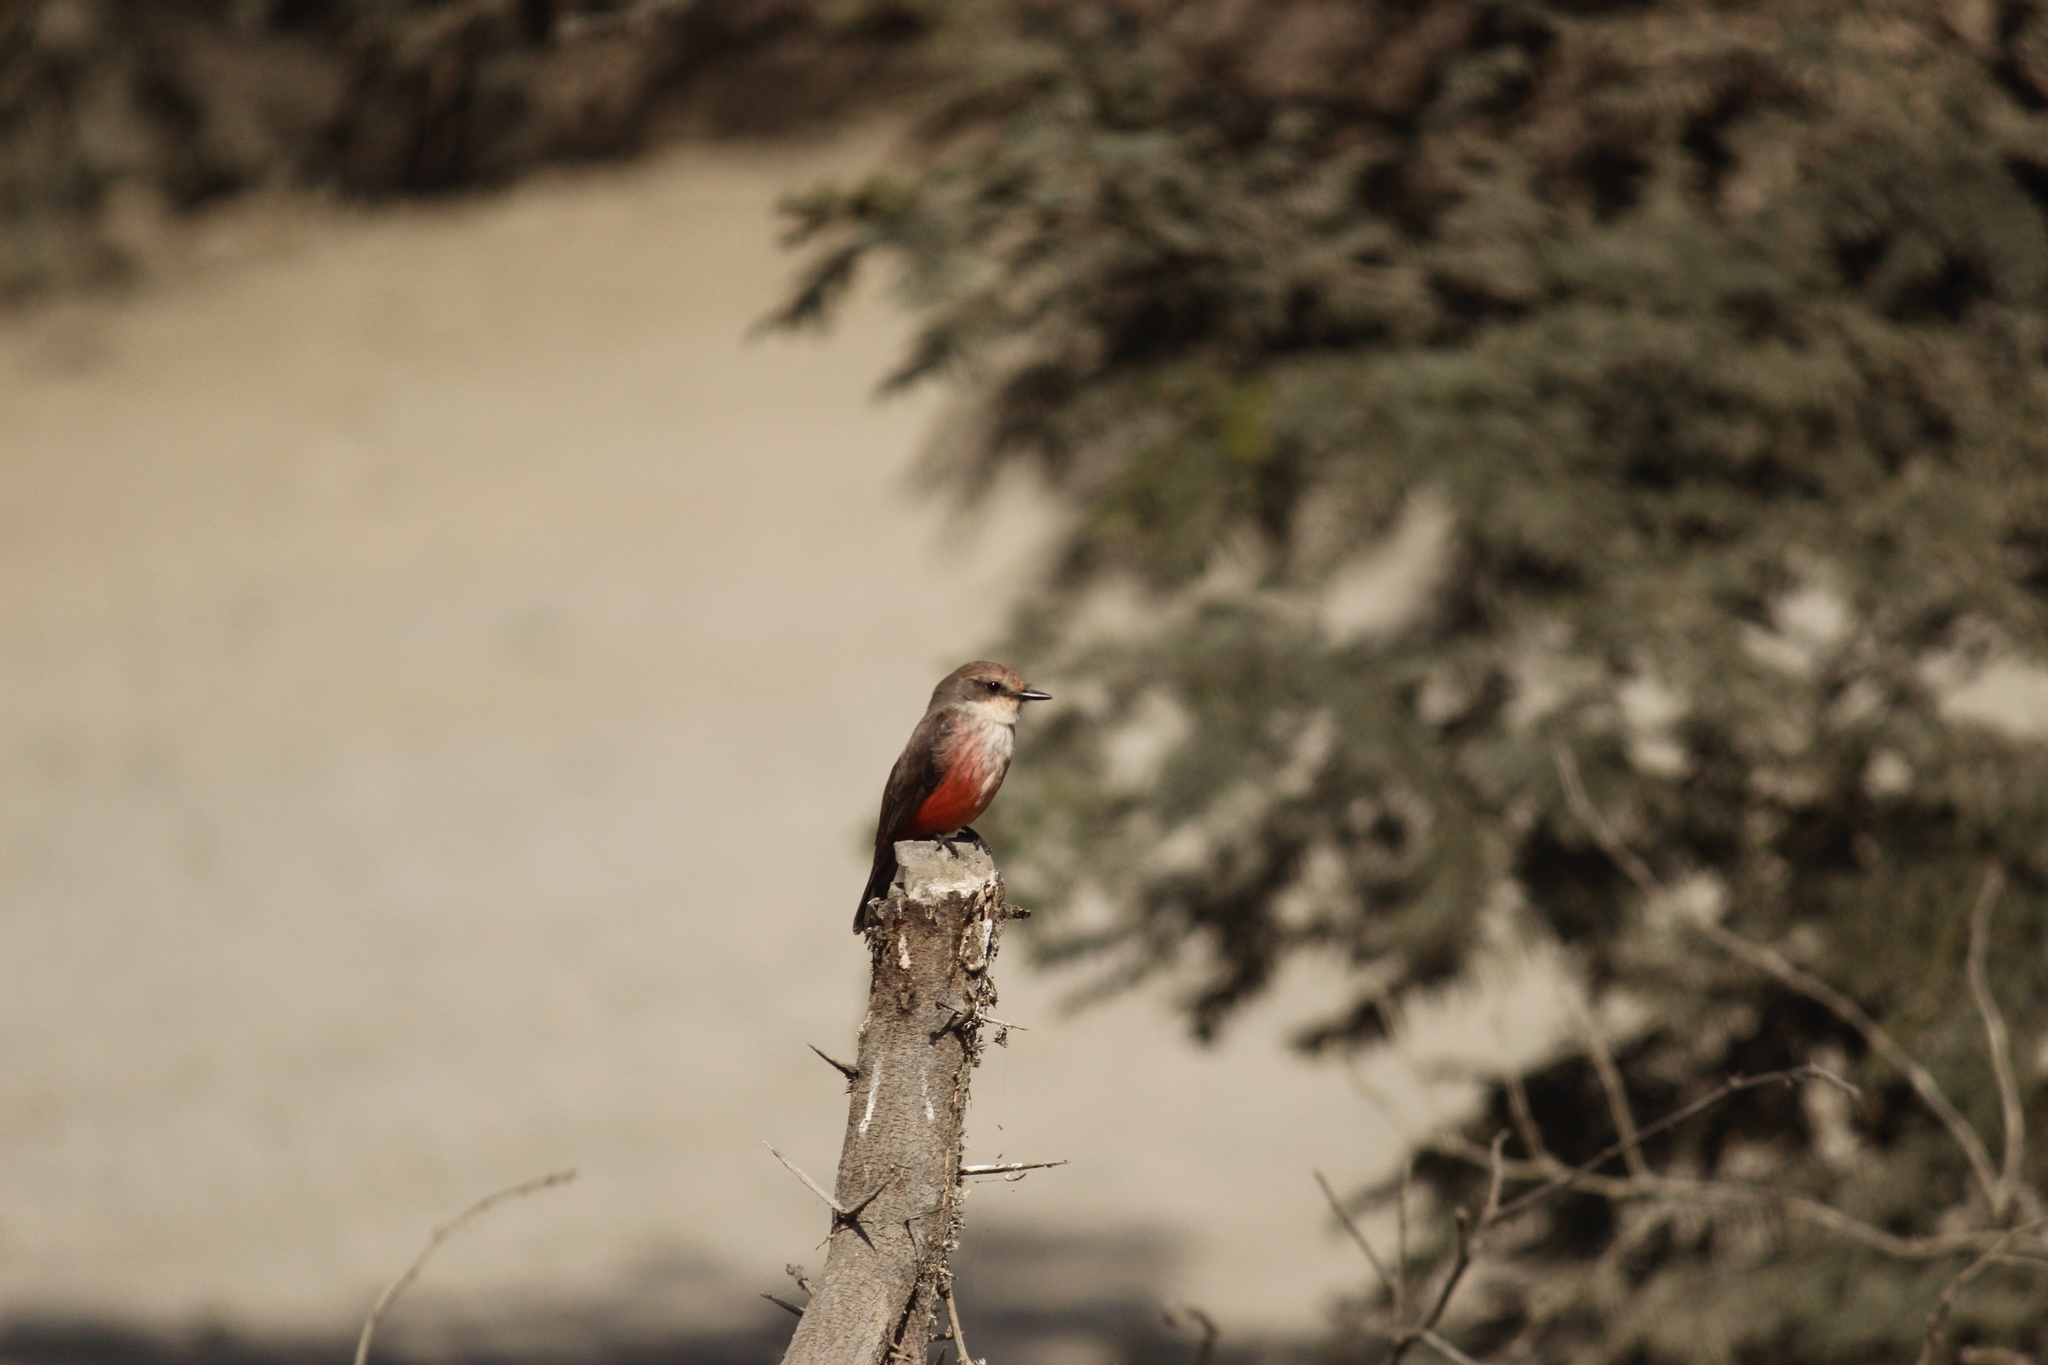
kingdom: Animalia
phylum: Chordata
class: Aves
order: Passeriformes
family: Tyrannidae
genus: Pyrocephalus
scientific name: Pyrocephalus rubinus
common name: Vermilion flycatcher
